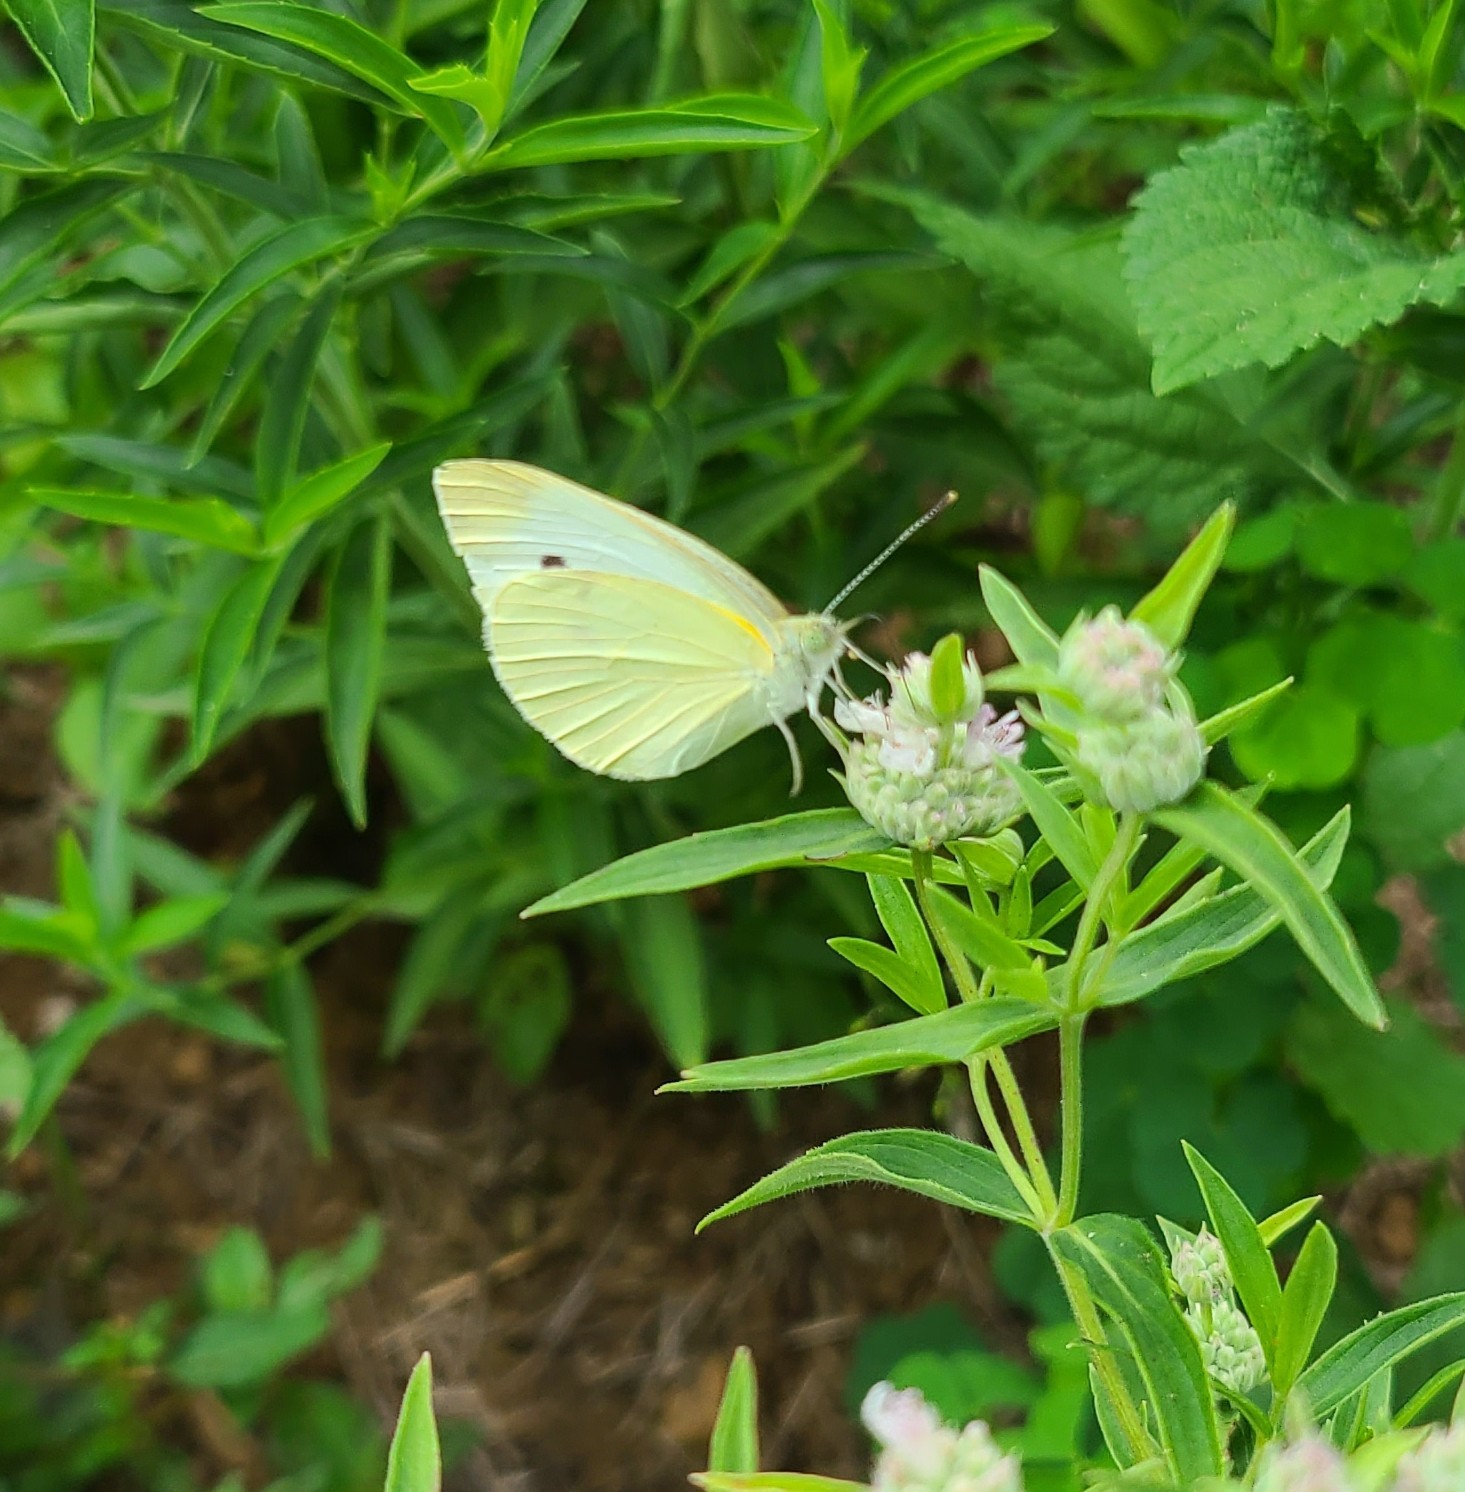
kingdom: Animalia
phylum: Arthropoda
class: Insecta
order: Lepidoptera
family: Pieridae
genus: Pieris
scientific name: Pieris rapae
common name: Small white
